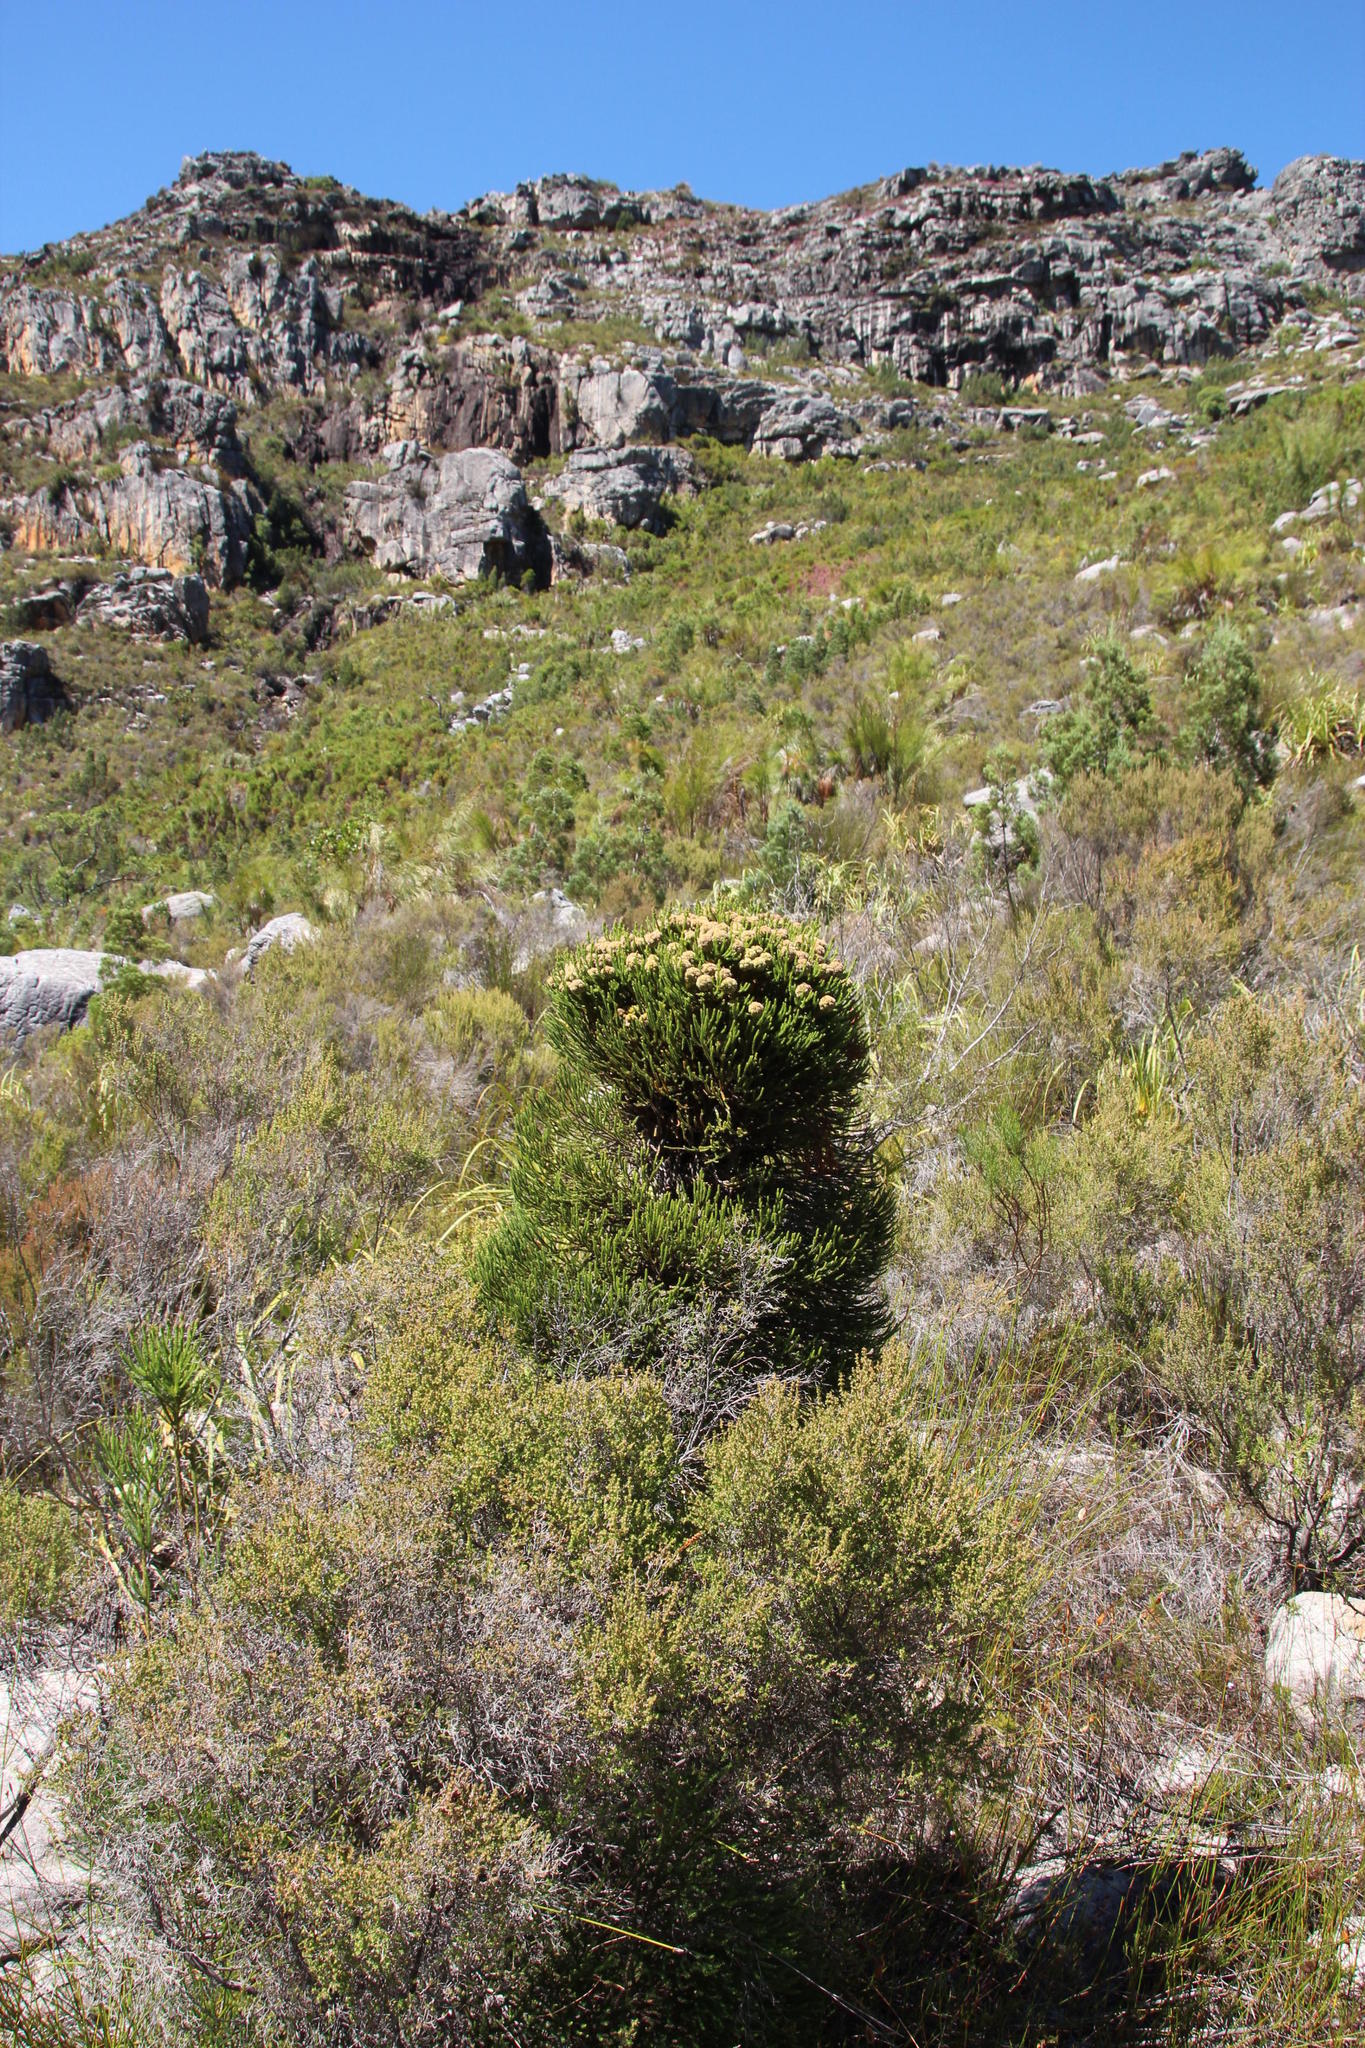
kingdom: Plantae
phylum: Tracheophyta
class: Magnoliopsida
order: Bruniales
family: Bruniaceae
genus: Brunia
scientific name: Brunia fragarioides
